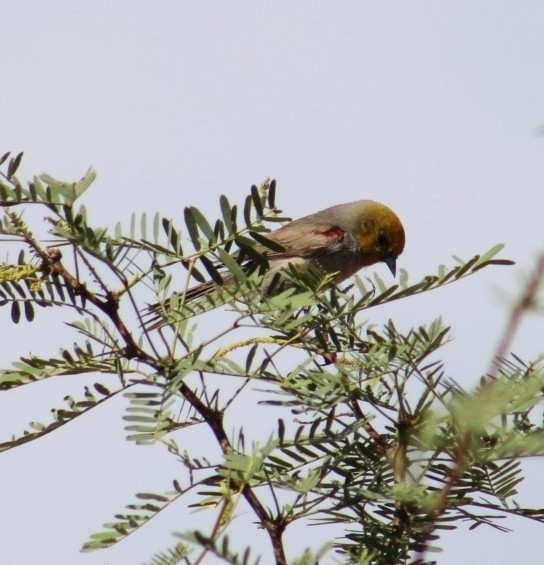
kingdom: Animalia
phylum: Chordata
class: Aves
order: Passeriformes
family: Remizidae
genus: Auriparus
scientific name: Auriparus flaviceps
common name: Verdin
